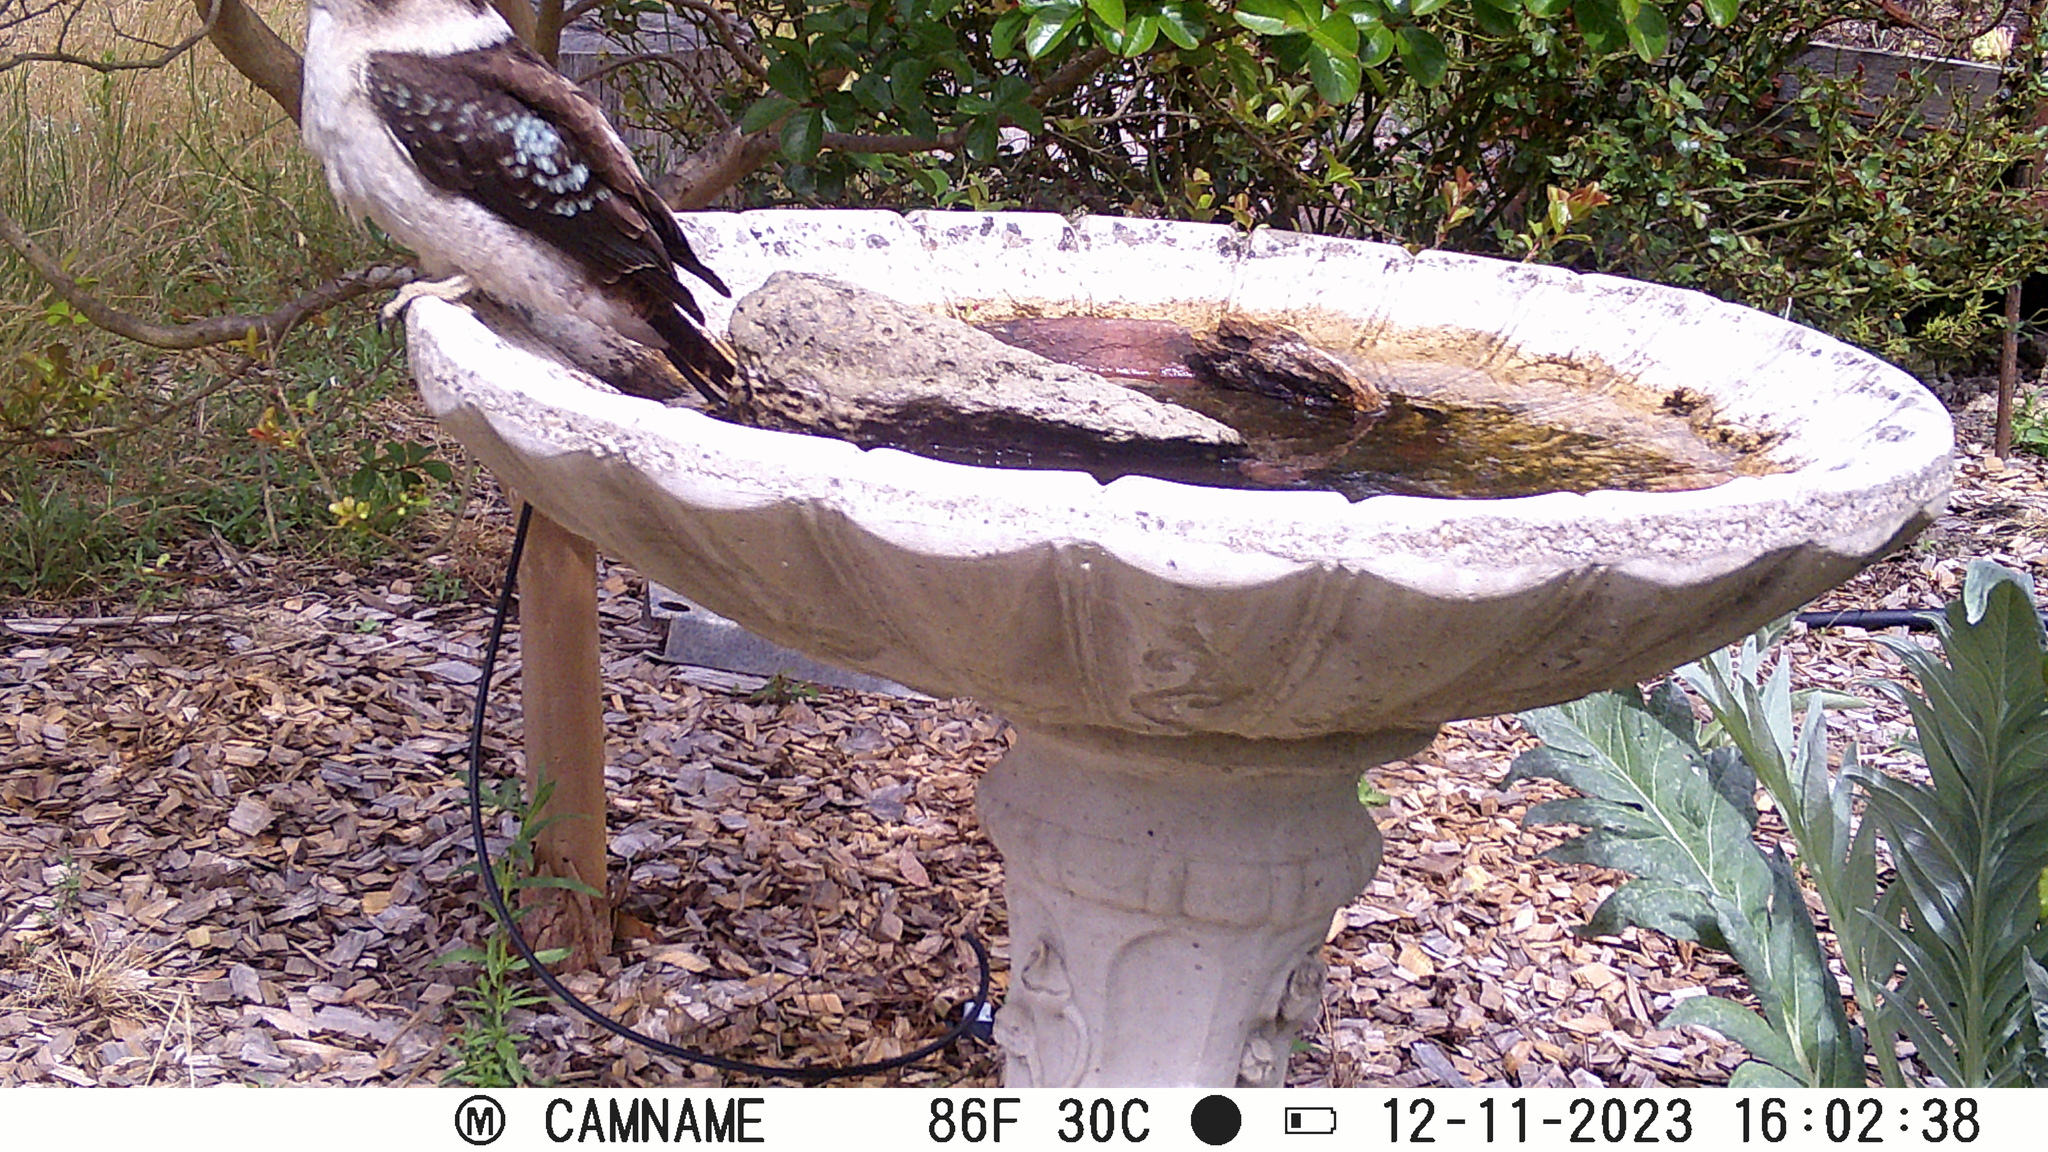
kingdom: Animalia
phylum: Chordata
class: Aves
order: Coraciiformes
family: Alcedinidae
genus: Dacelo
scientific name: Dacelo novaeguineae
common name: Laughing kookaburra
